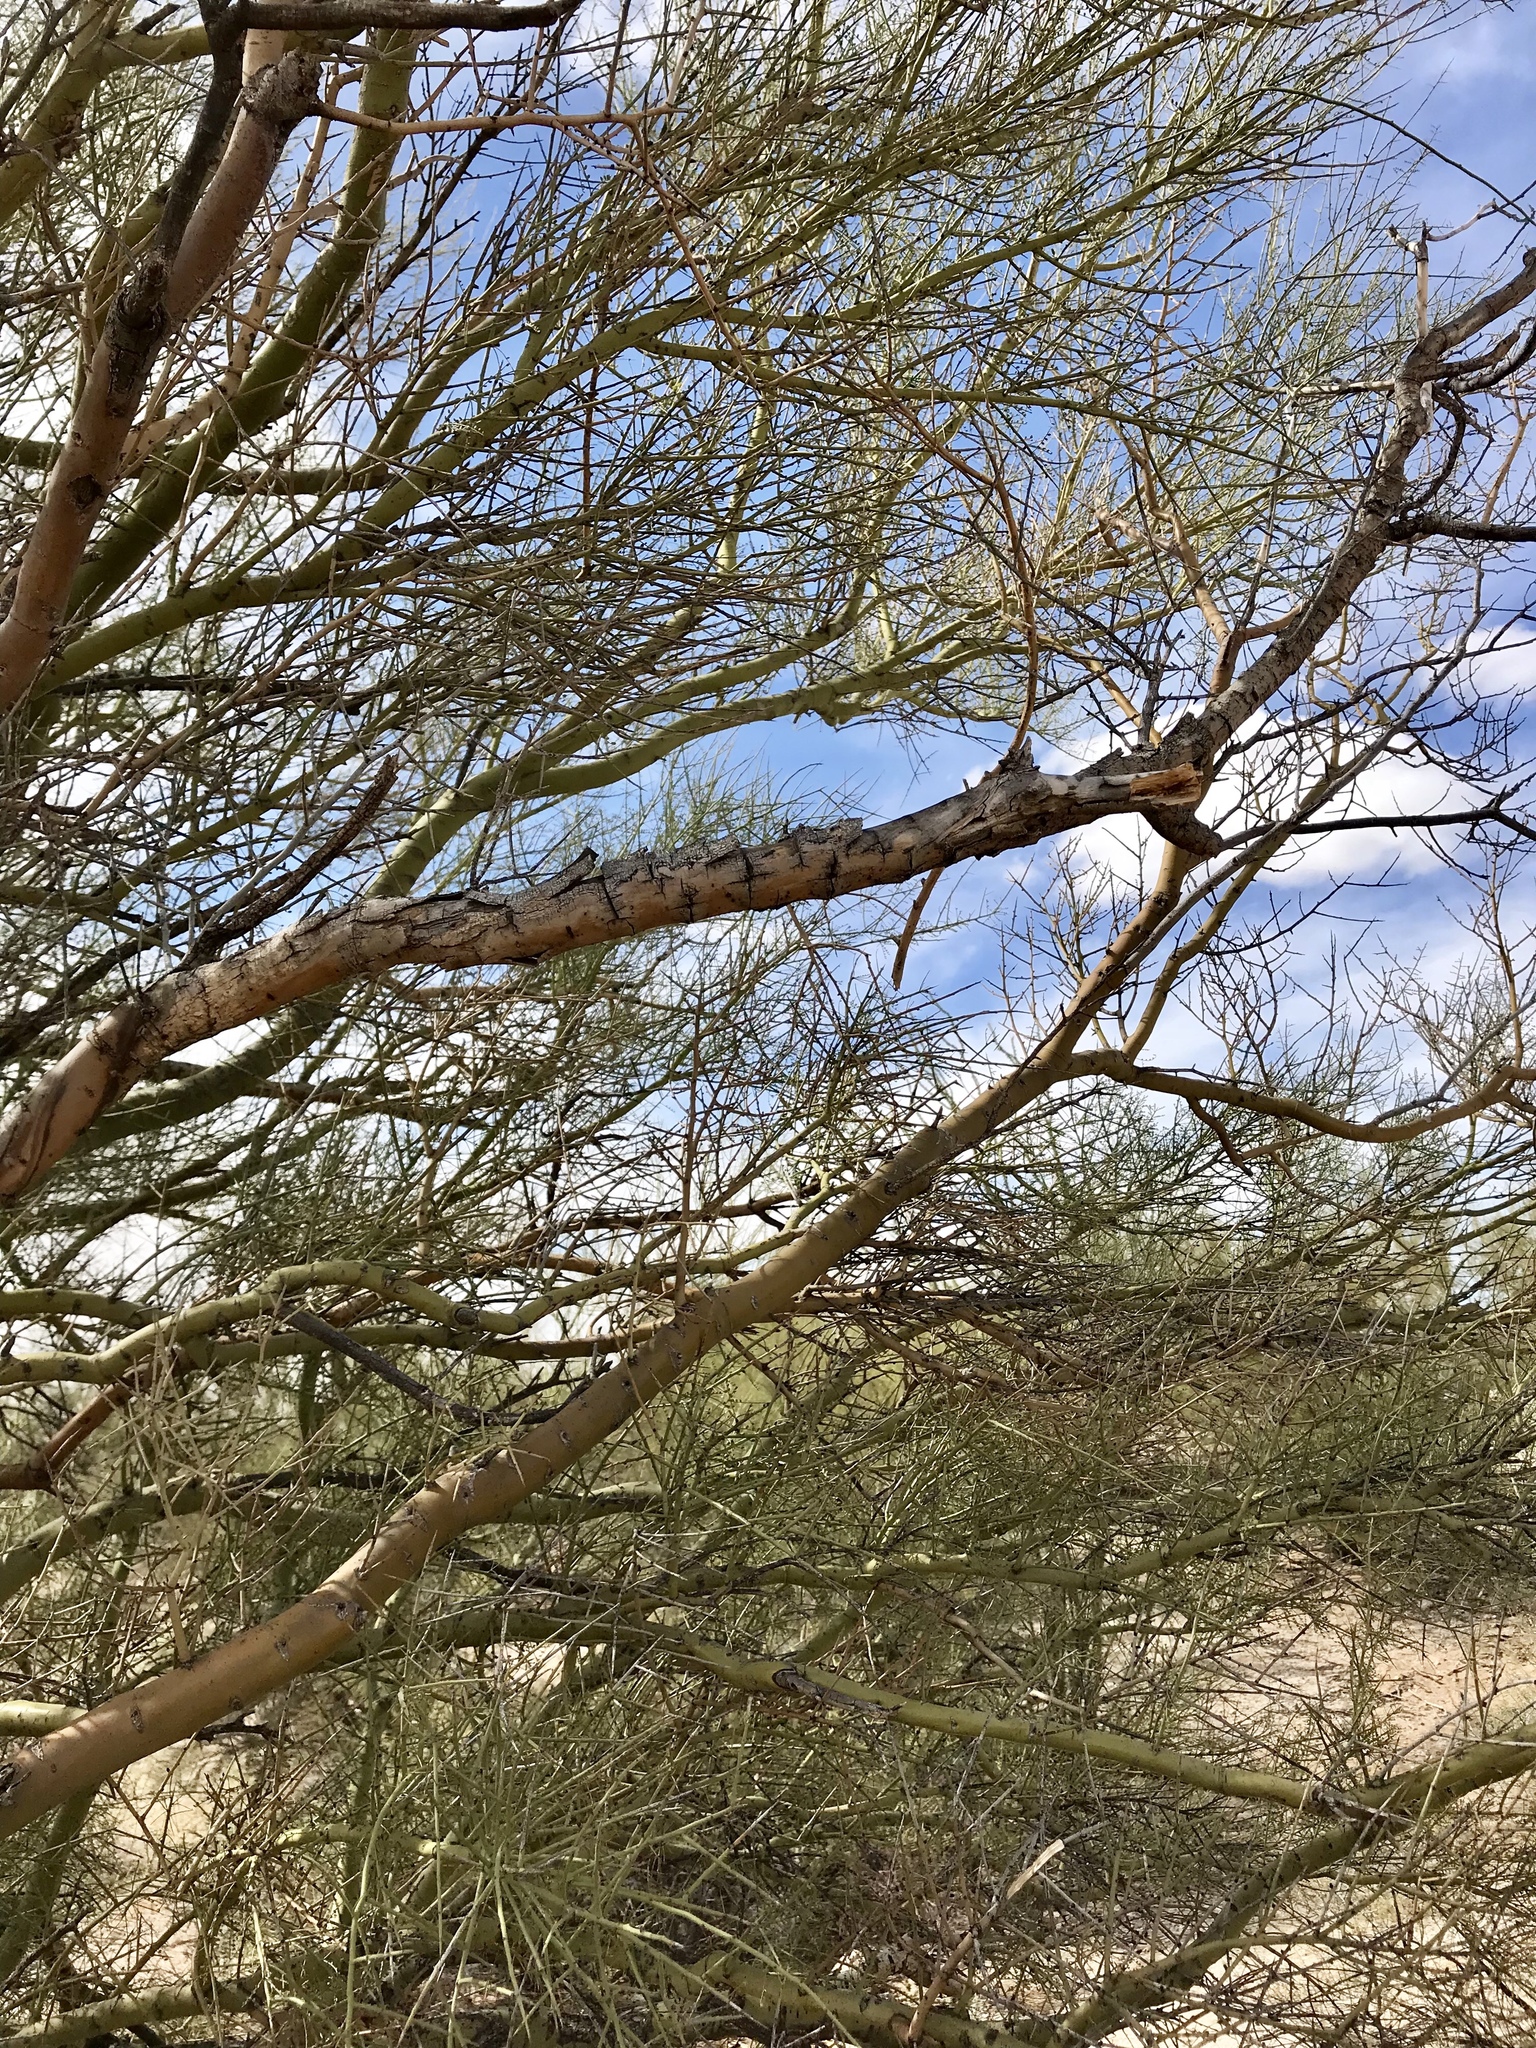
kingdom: Plantae
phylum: Tracheophyta
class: Magnoliopsida
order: Fabales
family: Fabaceae
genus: Parkinsonia
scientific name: Parkinsonia microphylla
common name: Yellow paloverde
